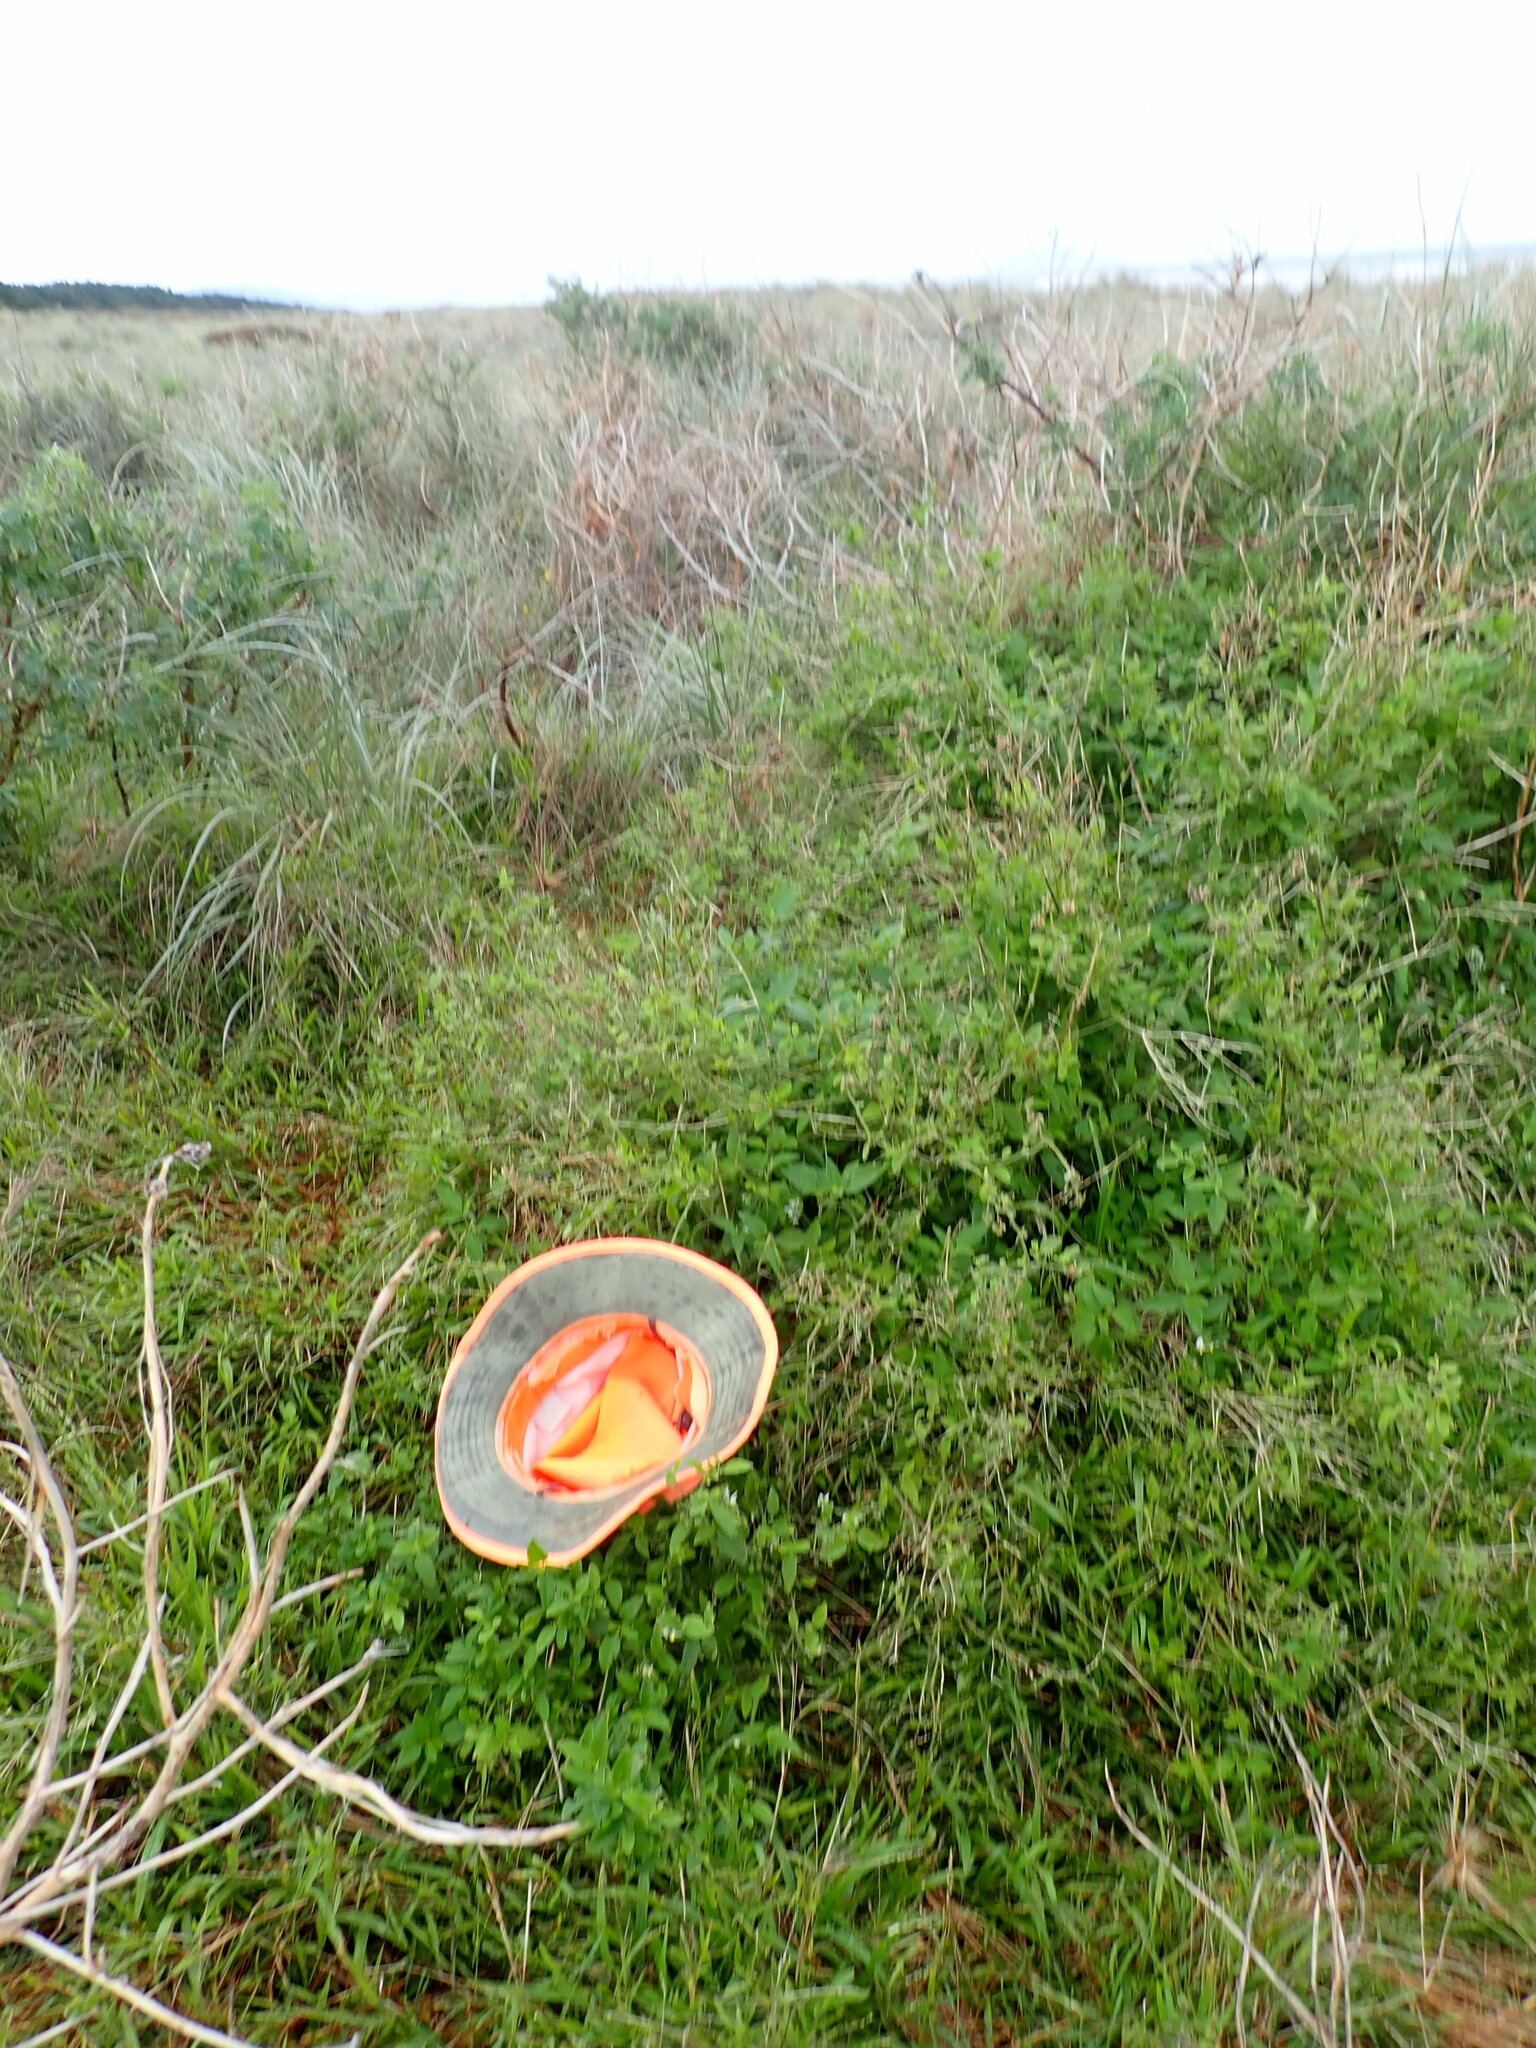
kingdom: Plantae
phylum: Tracheophyta
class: Magnoliopsida
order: Solanales
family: Solanaceae
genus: Solanum
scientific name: Solanum chenopodioides
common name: Tall nightshade
